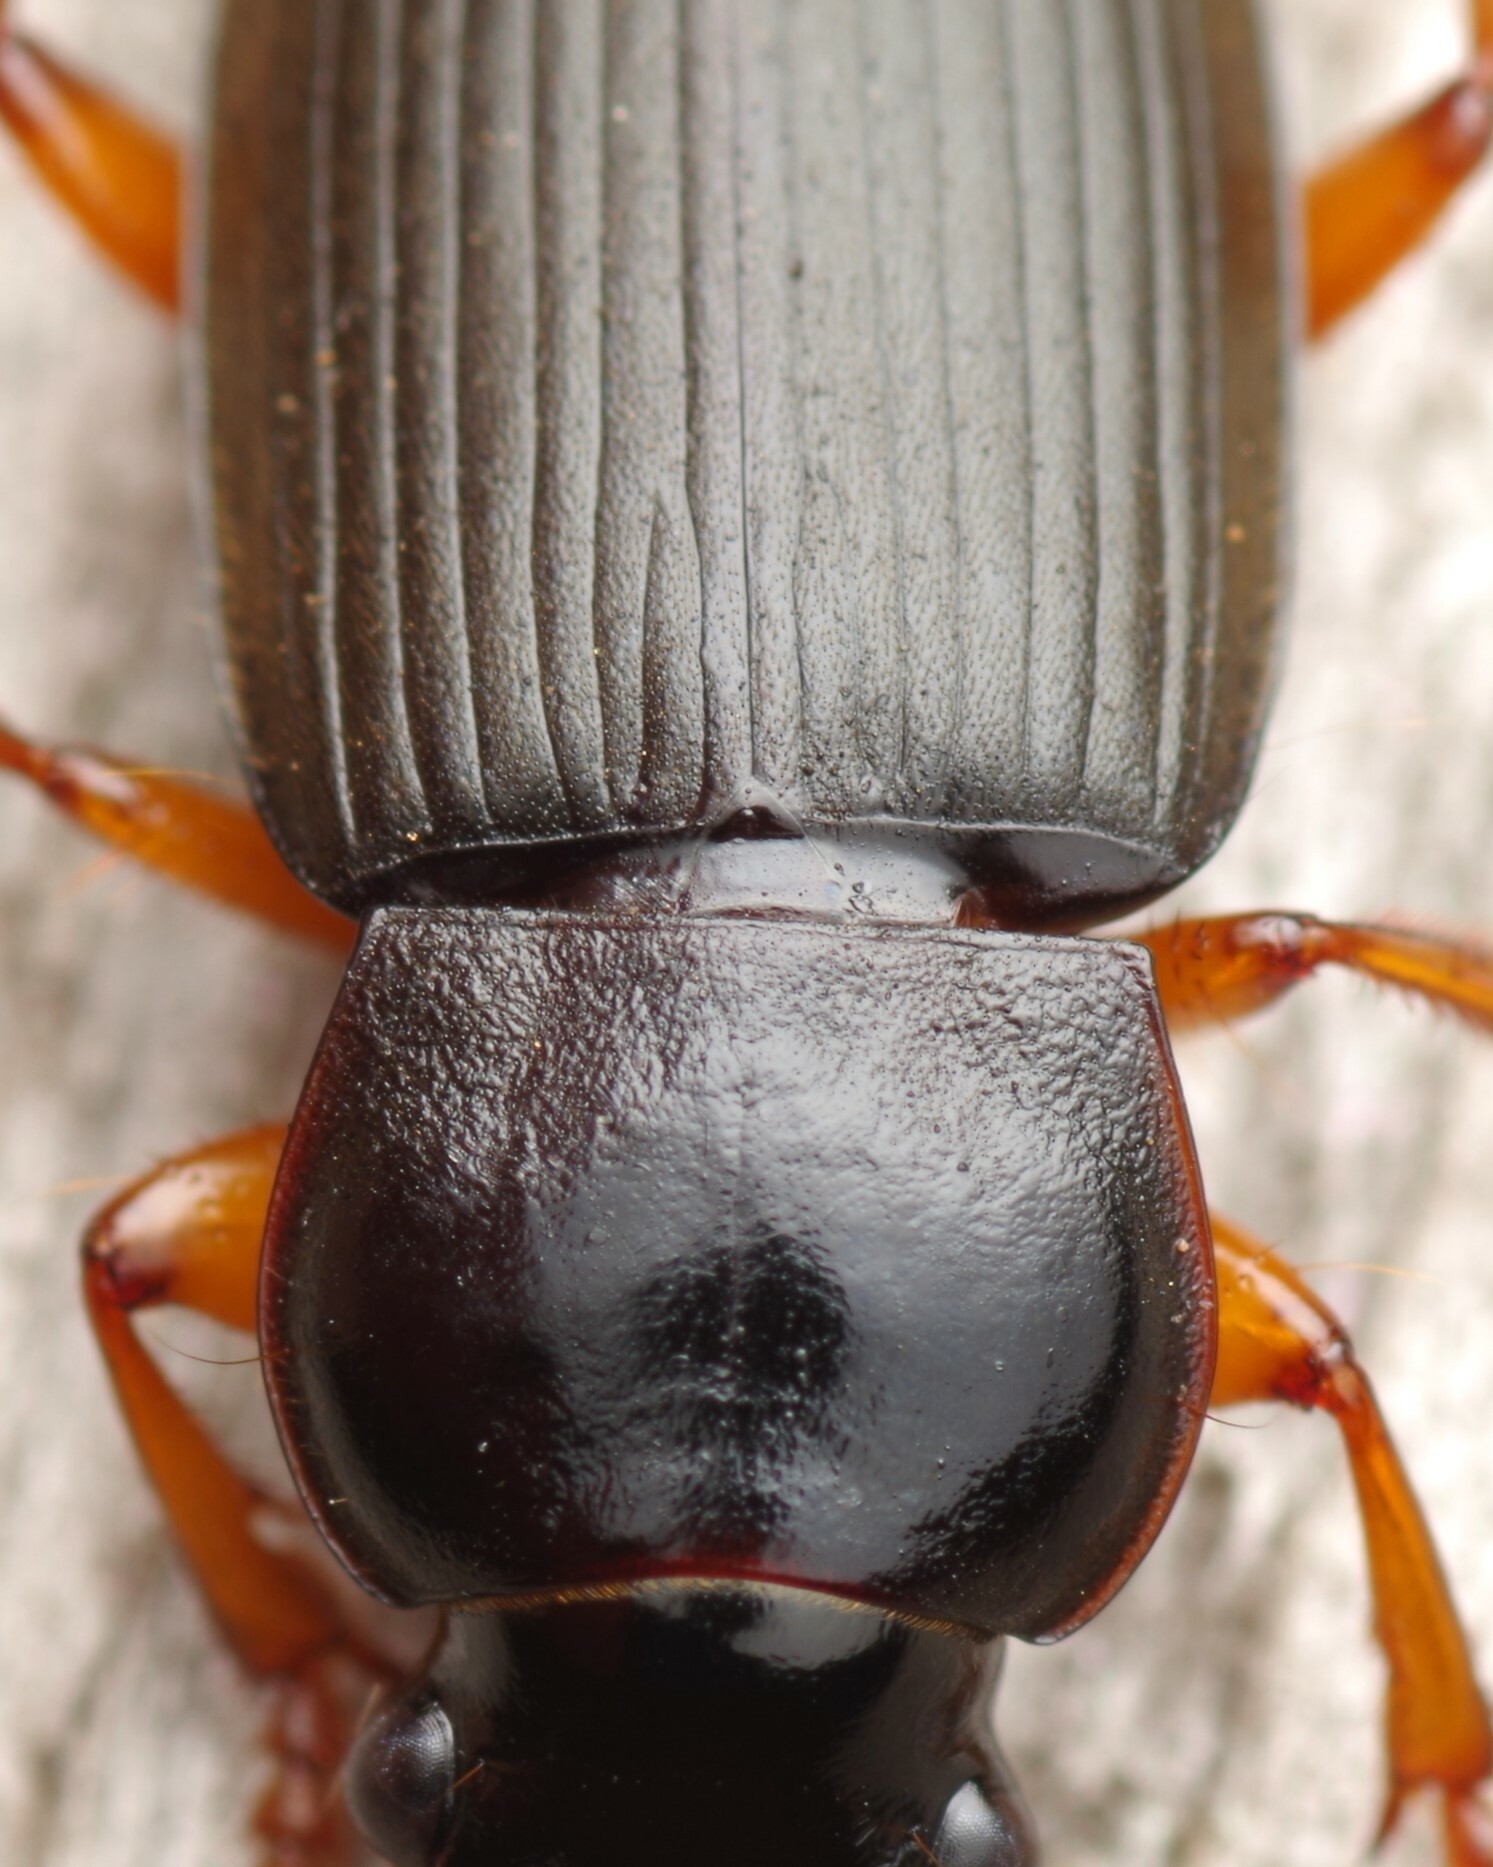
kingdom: Animalia
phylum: Arthropoda
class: Insecta
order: Coleoptera
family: Carabidae
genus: Harpalus
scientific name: Harpalus rufipes
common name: Strawberry harp ground beetle
